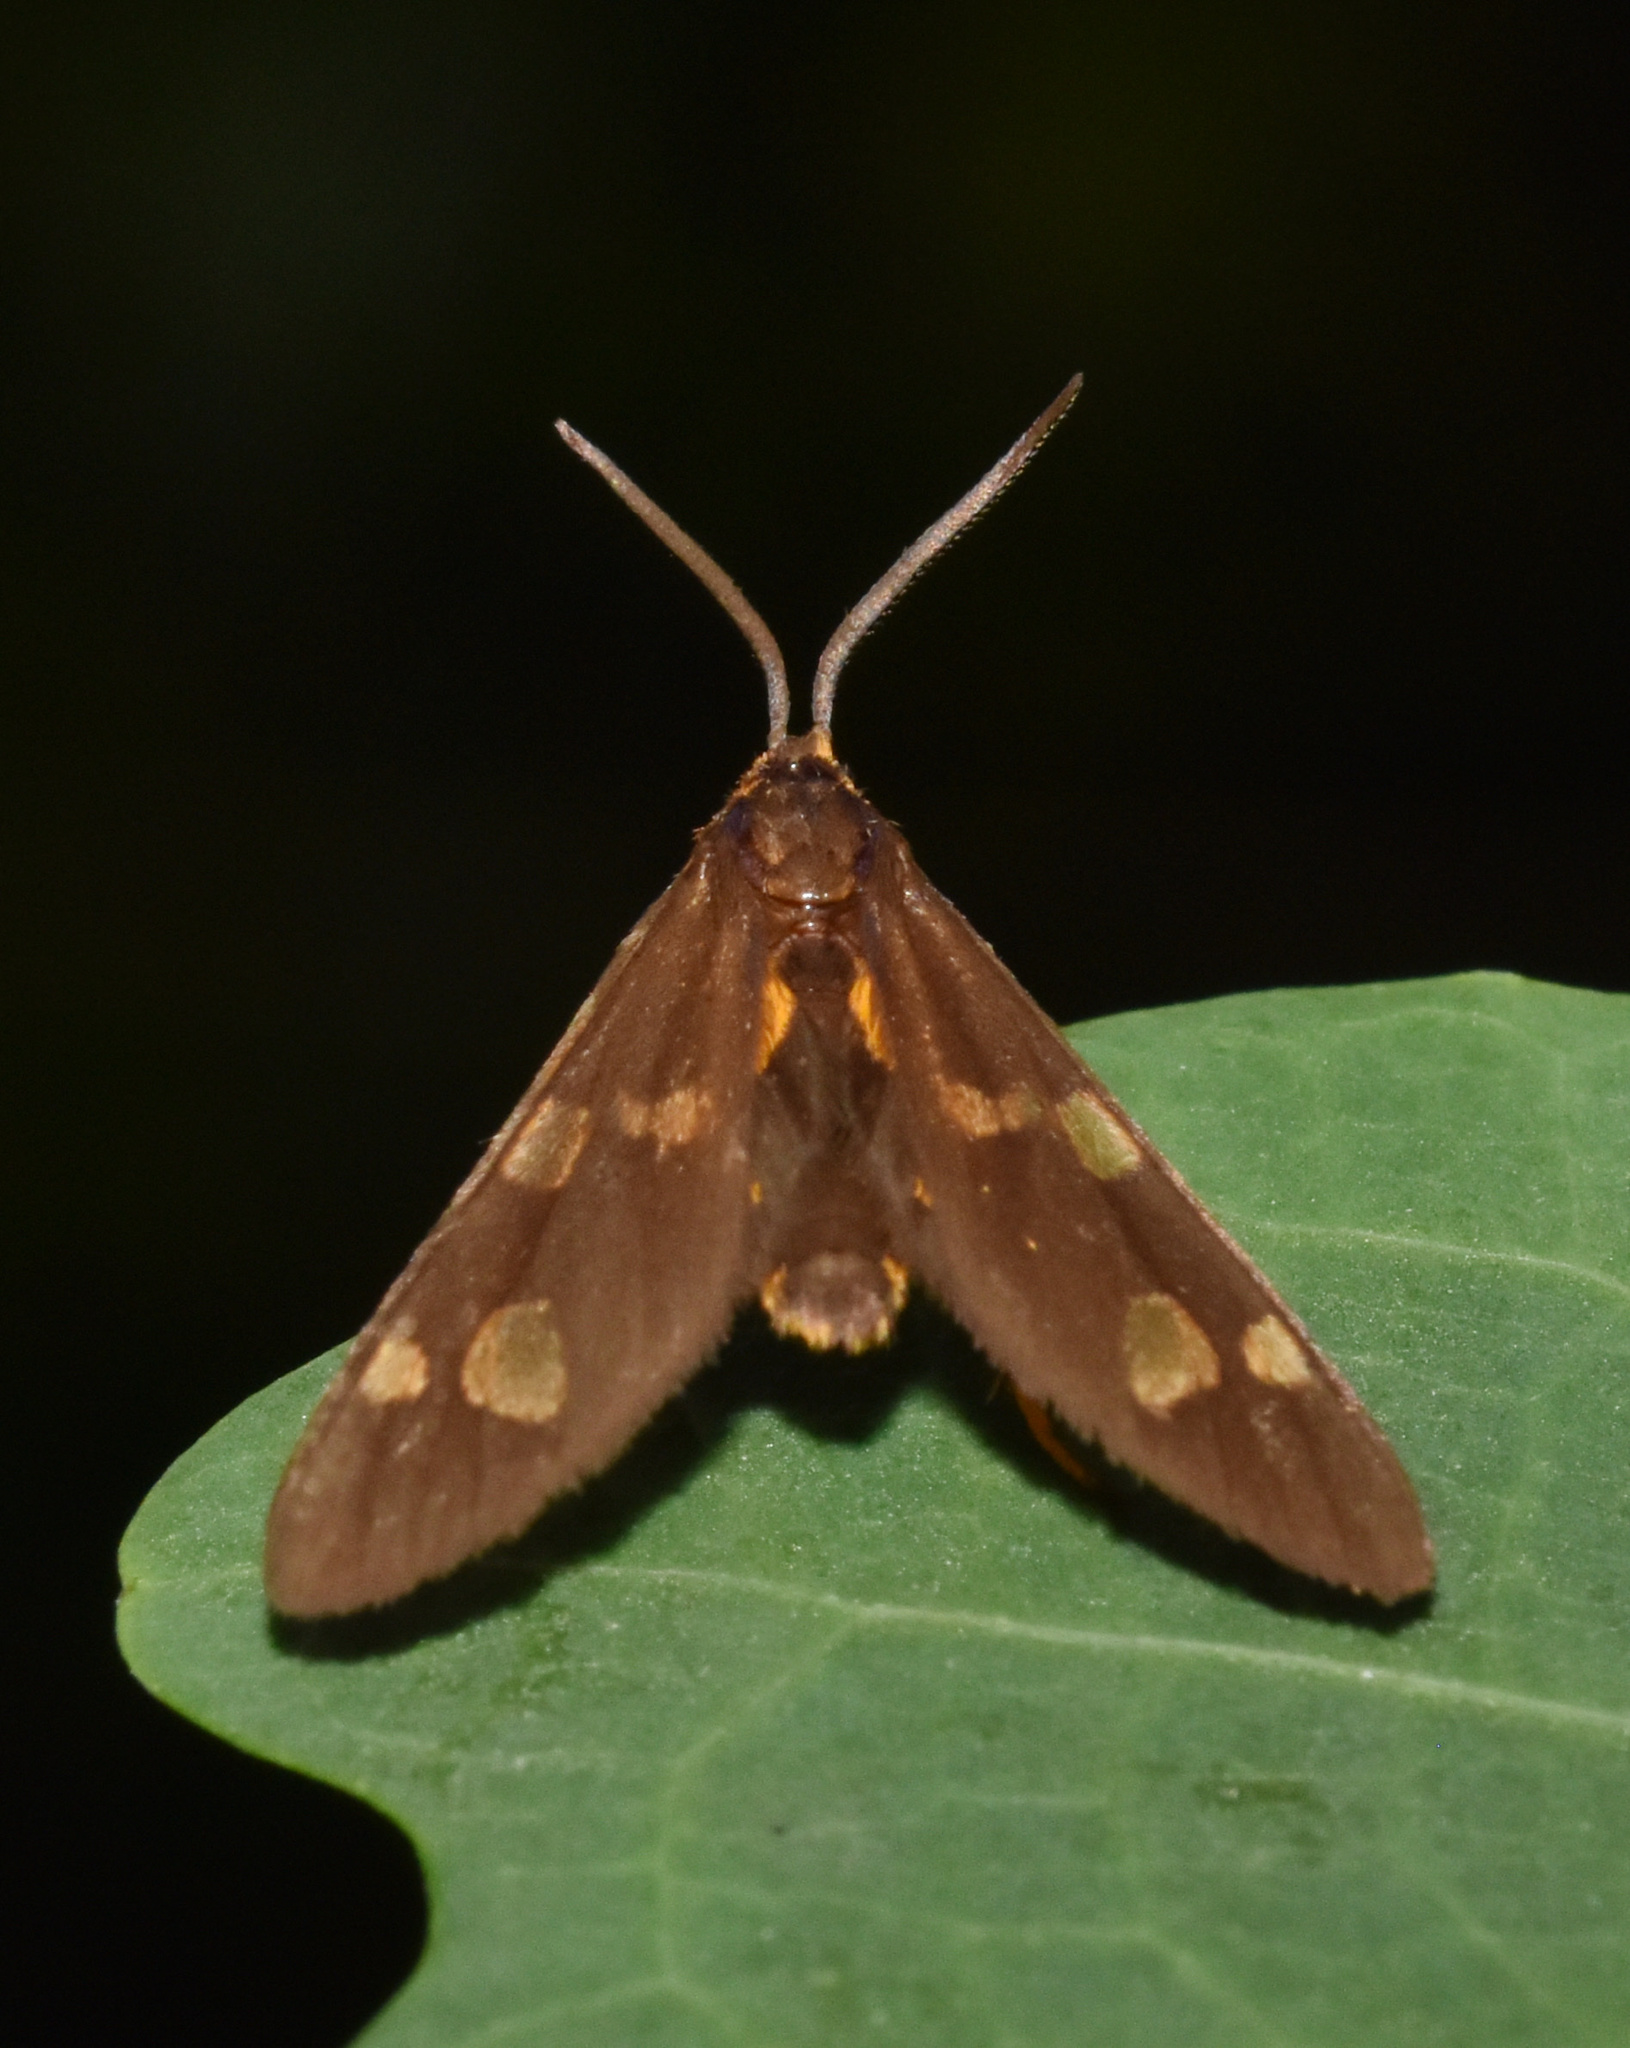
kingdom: Animalia
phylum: Arthropoda
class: Insecta
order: Lepidoptera
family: Erebidae
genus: Pseudonaclia
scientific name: Pseudonaclia puella
